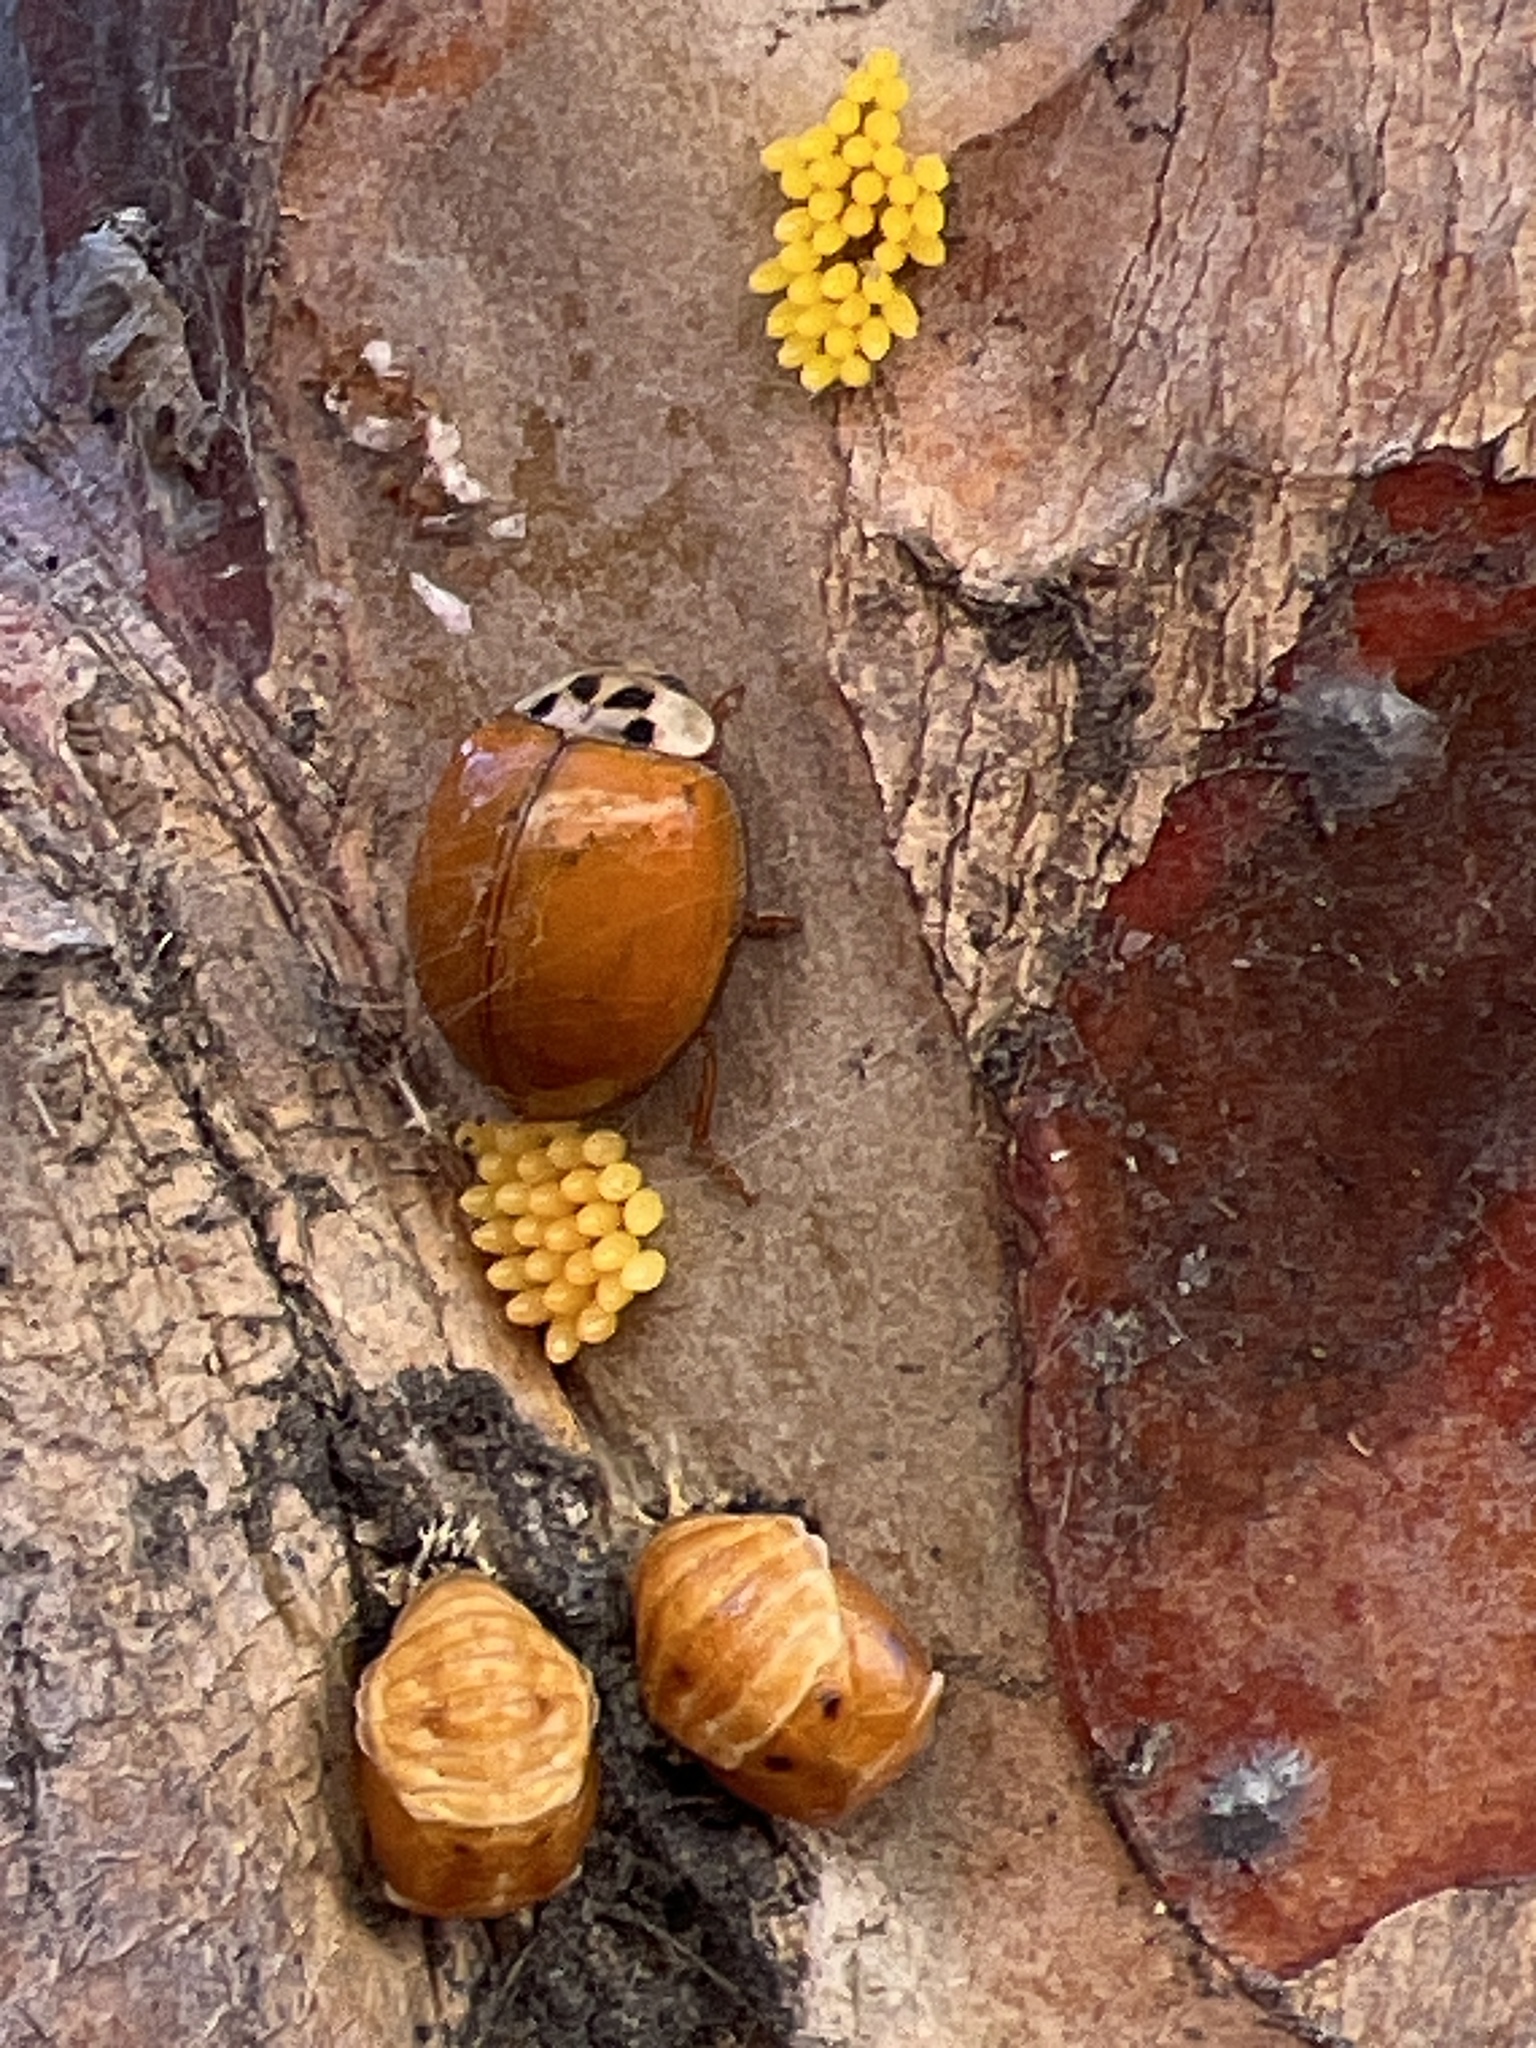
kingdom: Animalia
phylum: Arthropoda
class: Insecta
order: Coleoptera
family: Coccinellidae
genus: Harmonia
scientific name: Harmonia axyridis
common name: Harlequin ladybird
